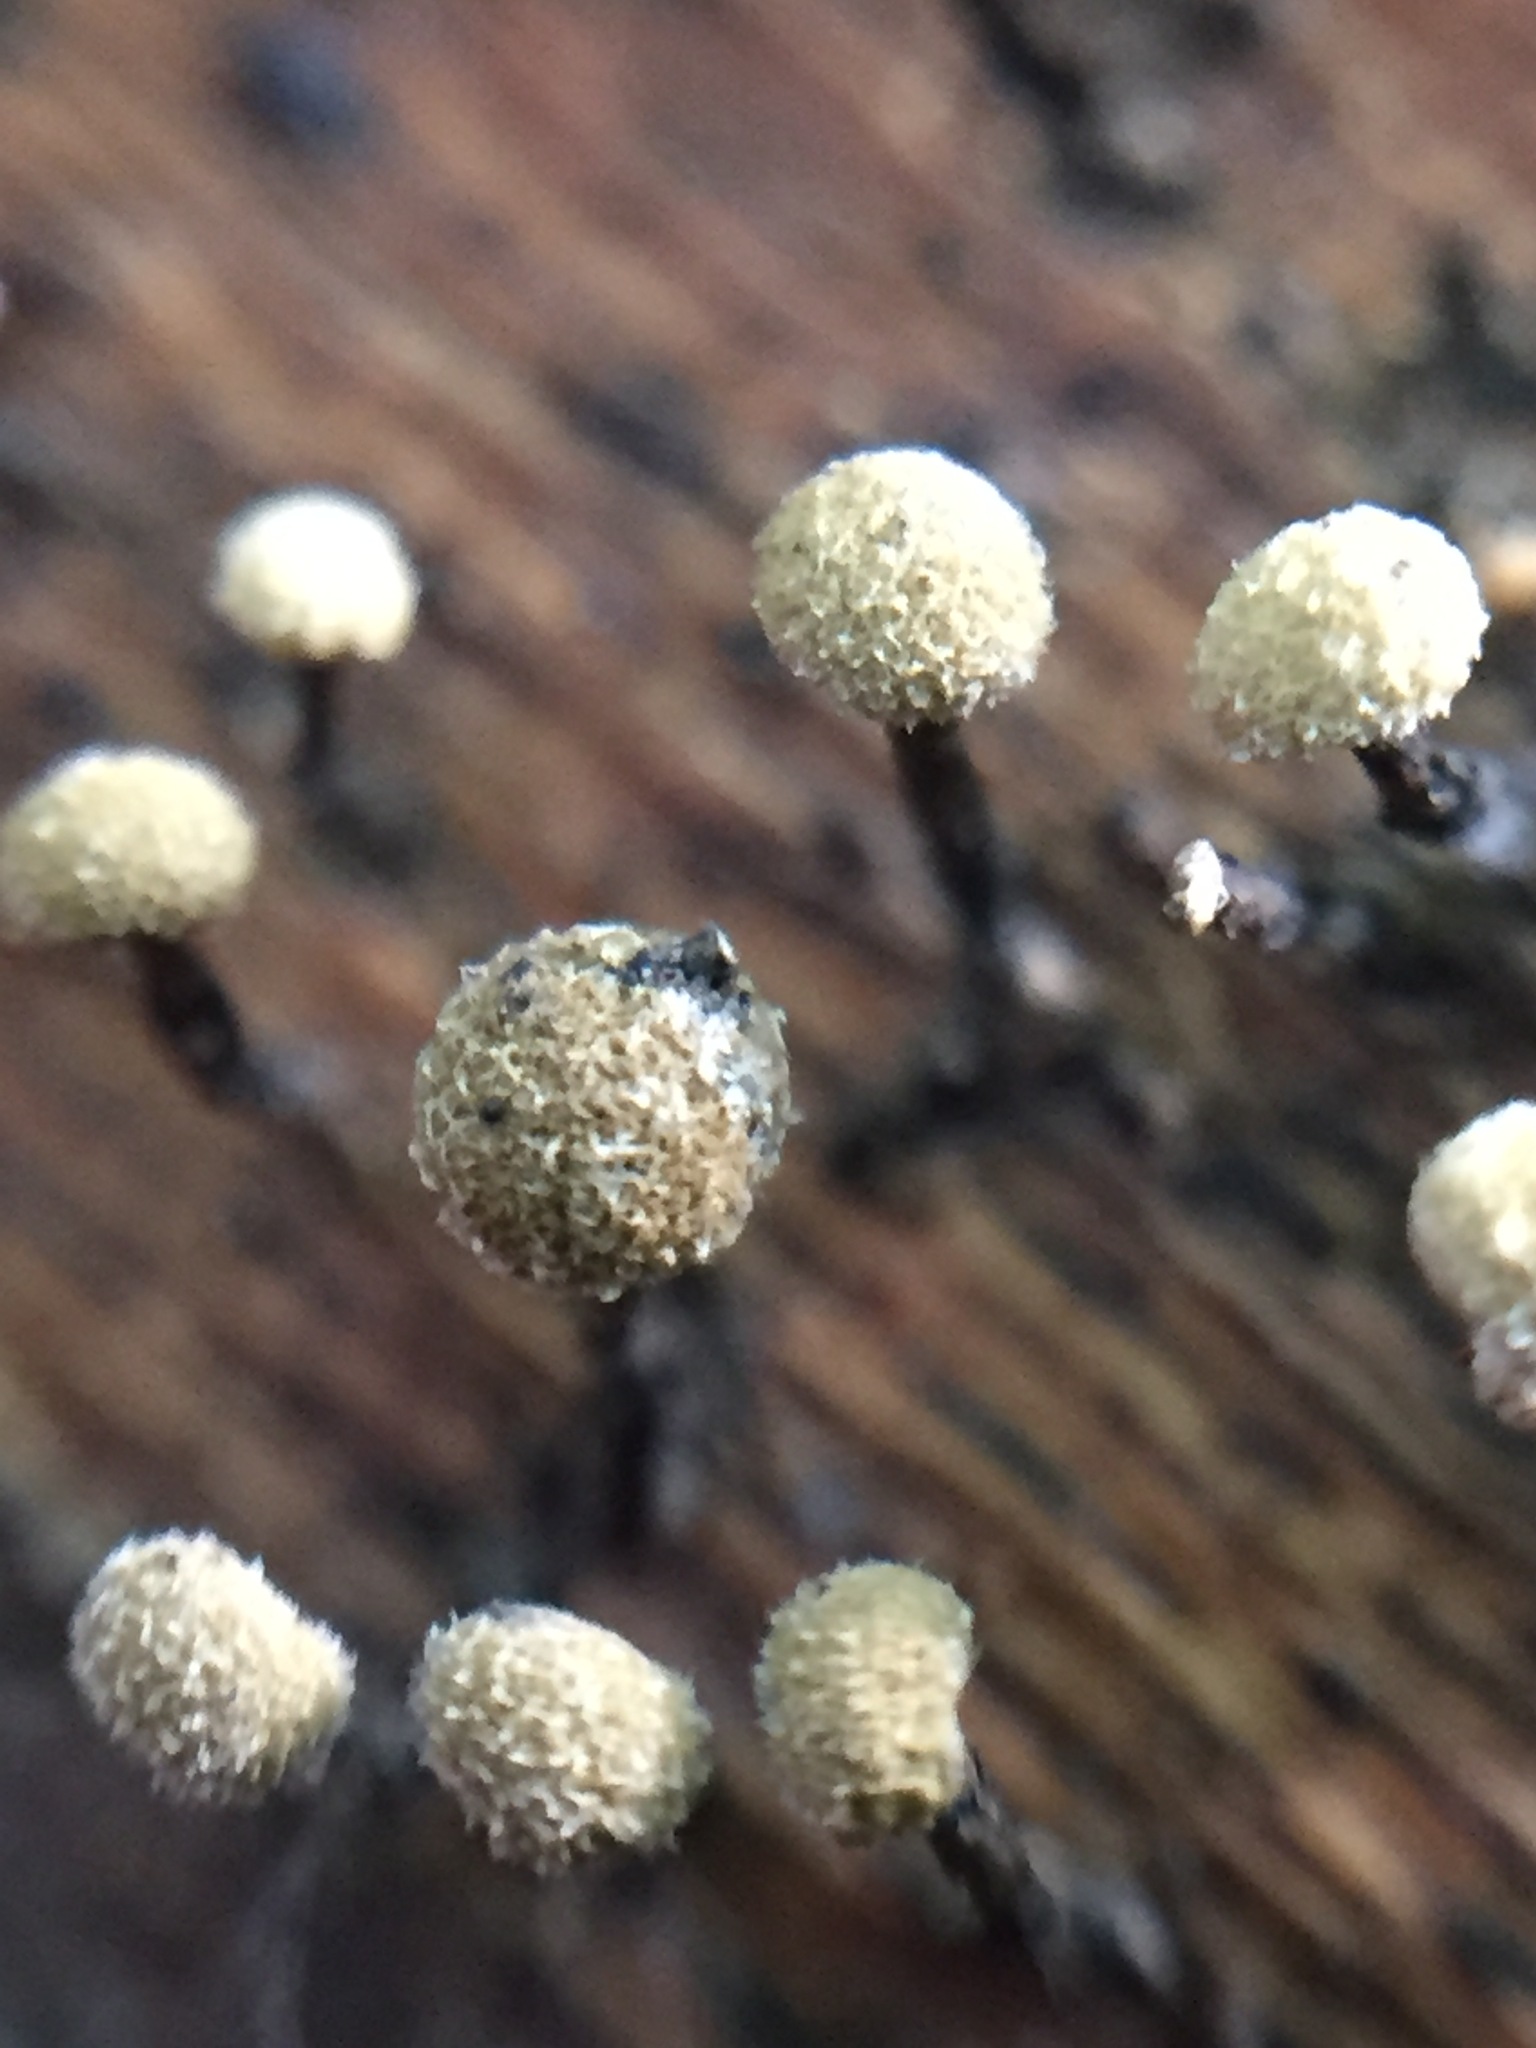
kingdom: Fungi
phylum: Basidiomycota
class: Atractiellomycetes
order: Atractiellales
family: Phleogenaceae
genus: Phleogena
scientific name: Phleogena faginea
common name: Fenugreek stalkball
